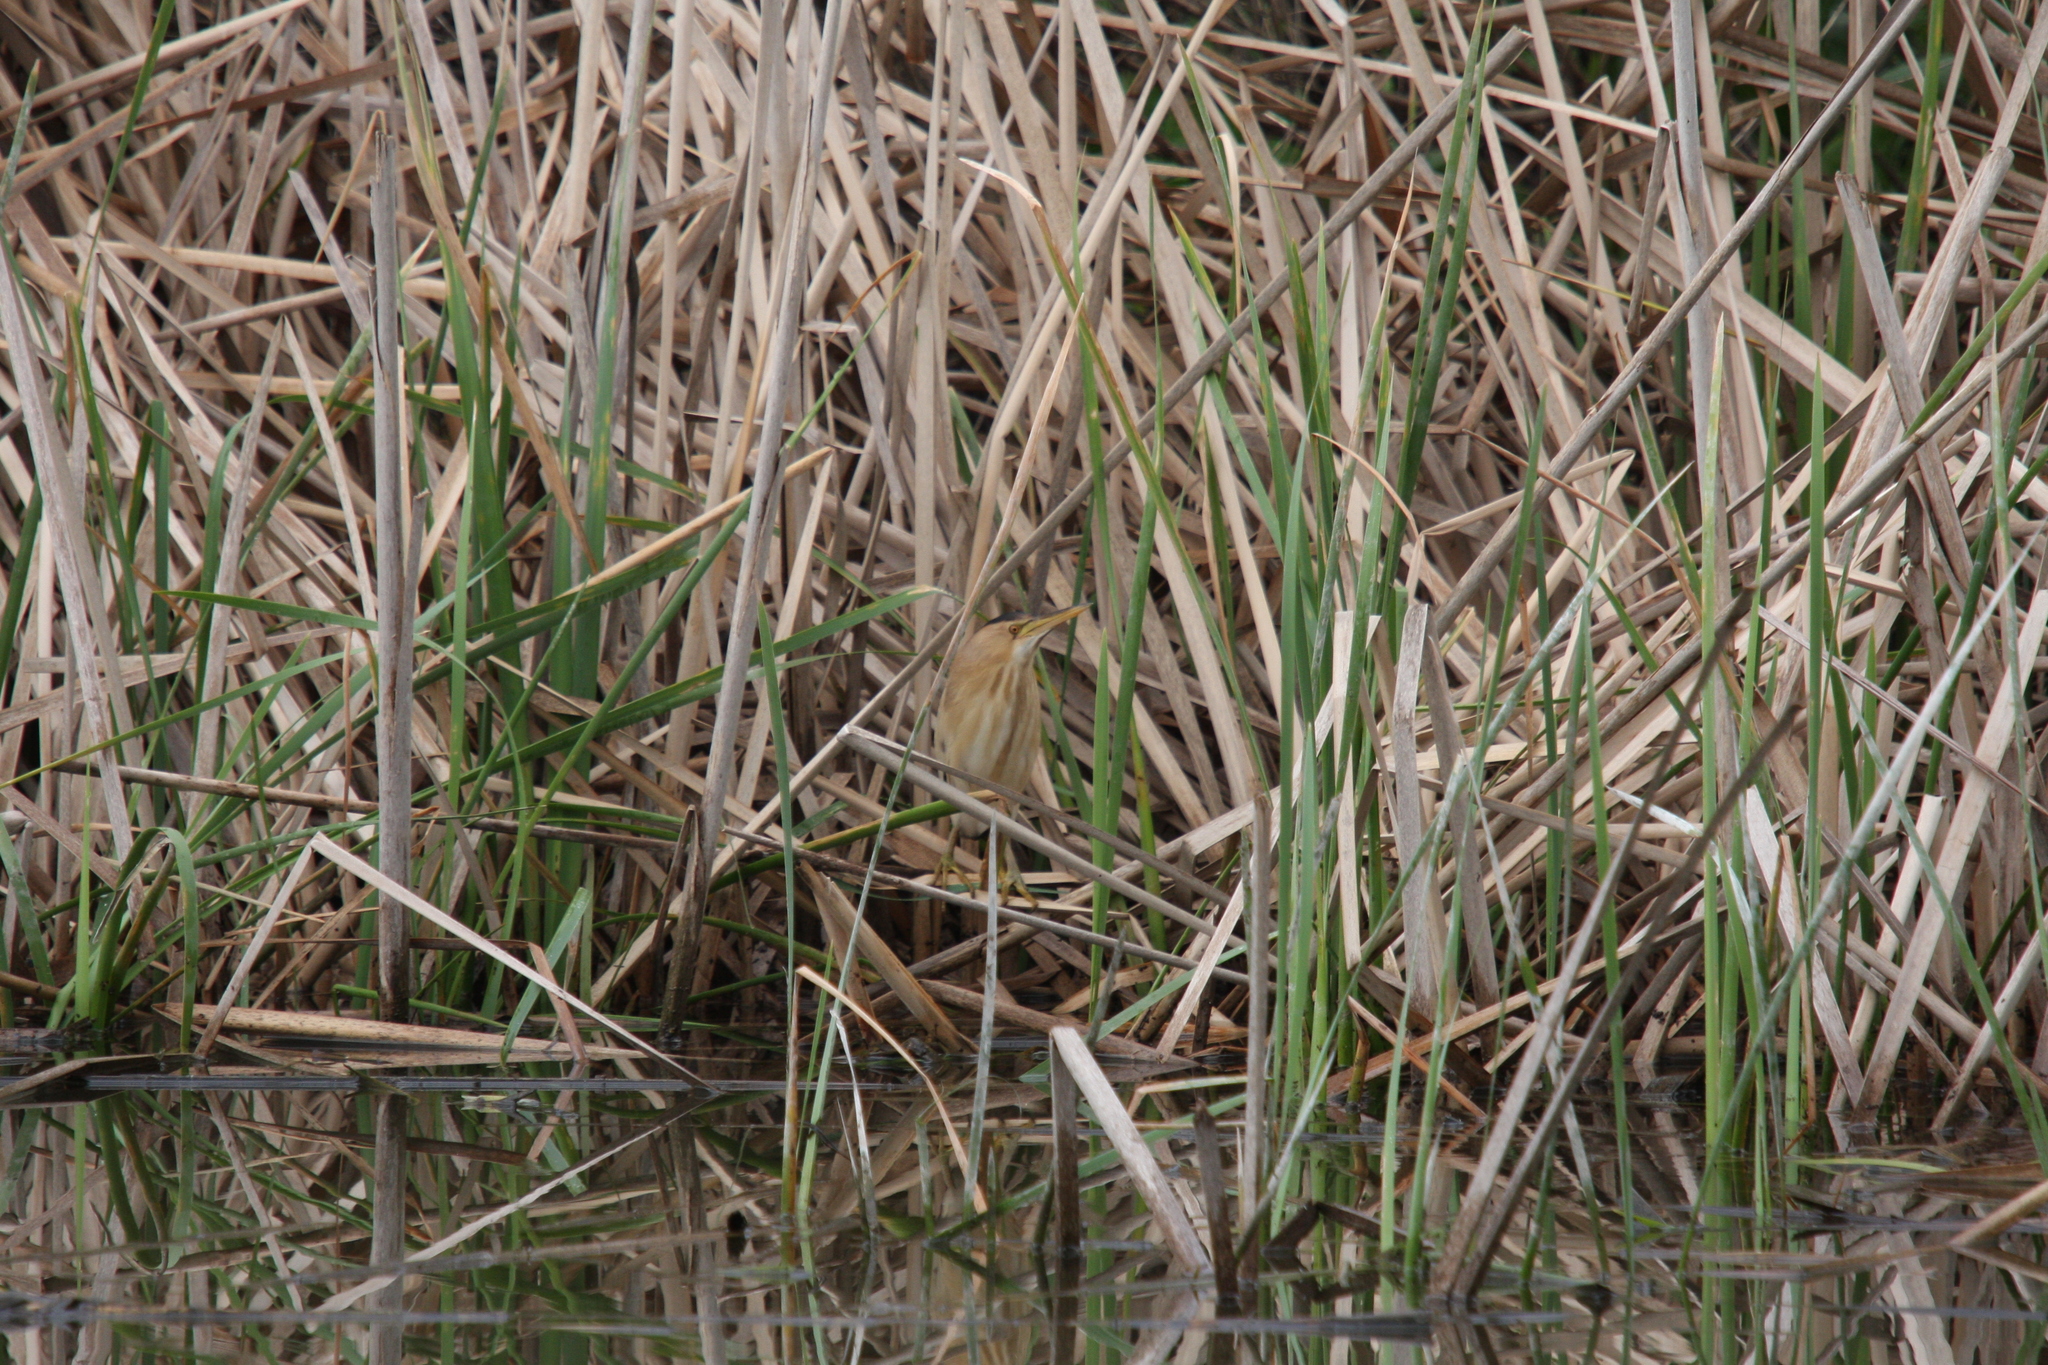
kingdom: Animalia
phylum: Chordata
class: Aves
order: Pelecaniformes
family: Ardeidae
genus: Ixobrychus
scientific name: Ixobrychus minutus
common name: Little bittern
